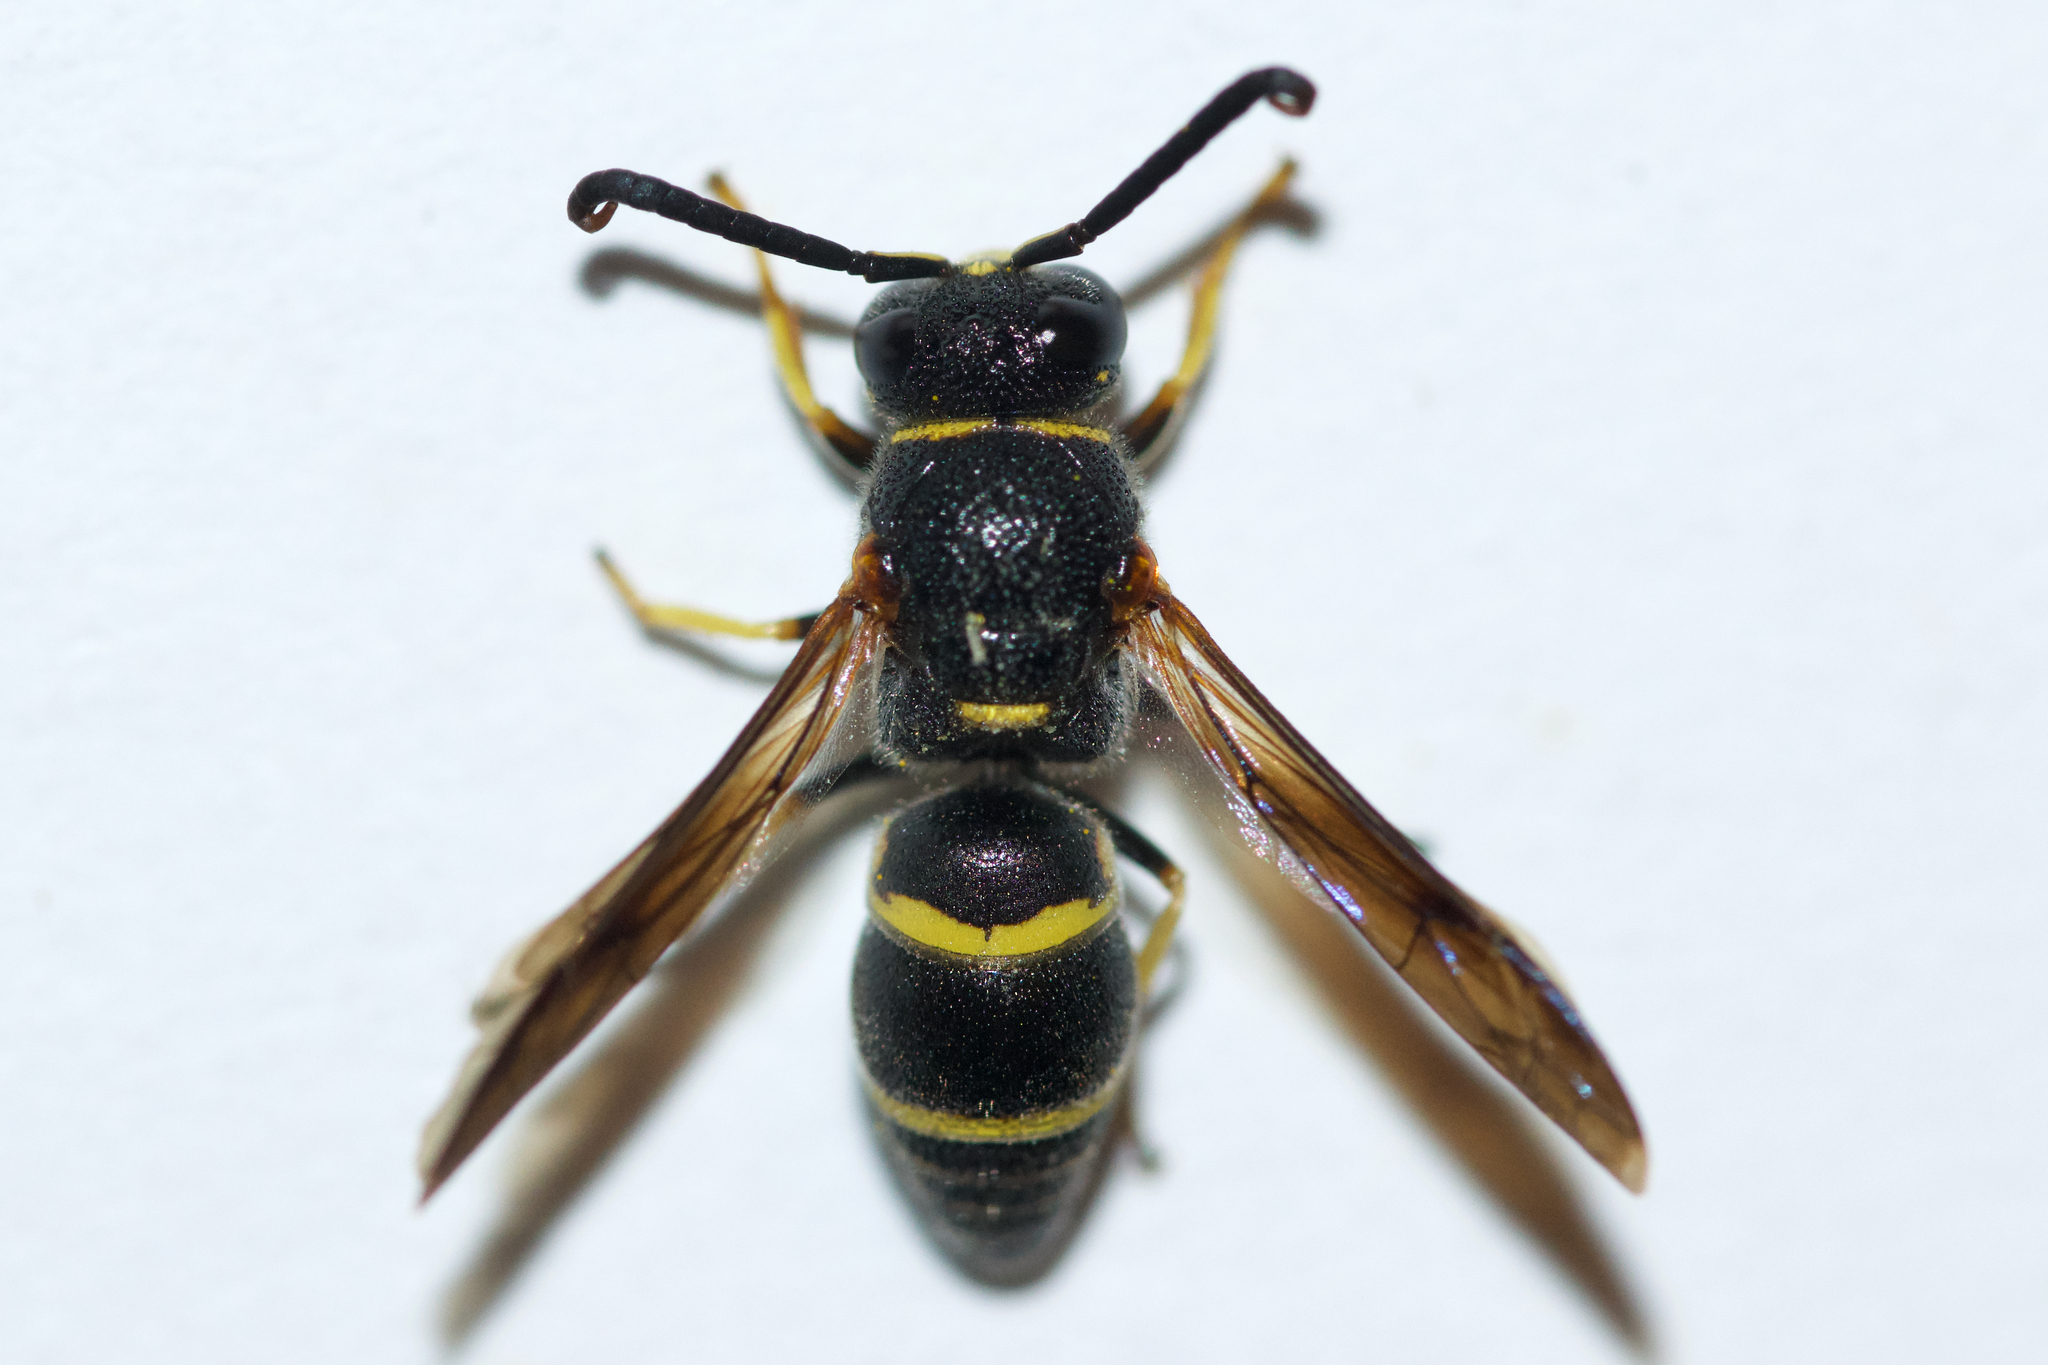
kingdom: Animalia
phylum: Arthropoda
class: Insecta
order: Hymenoptera
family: Eumenidae
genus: Euodynerus
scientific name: Euodynerus
